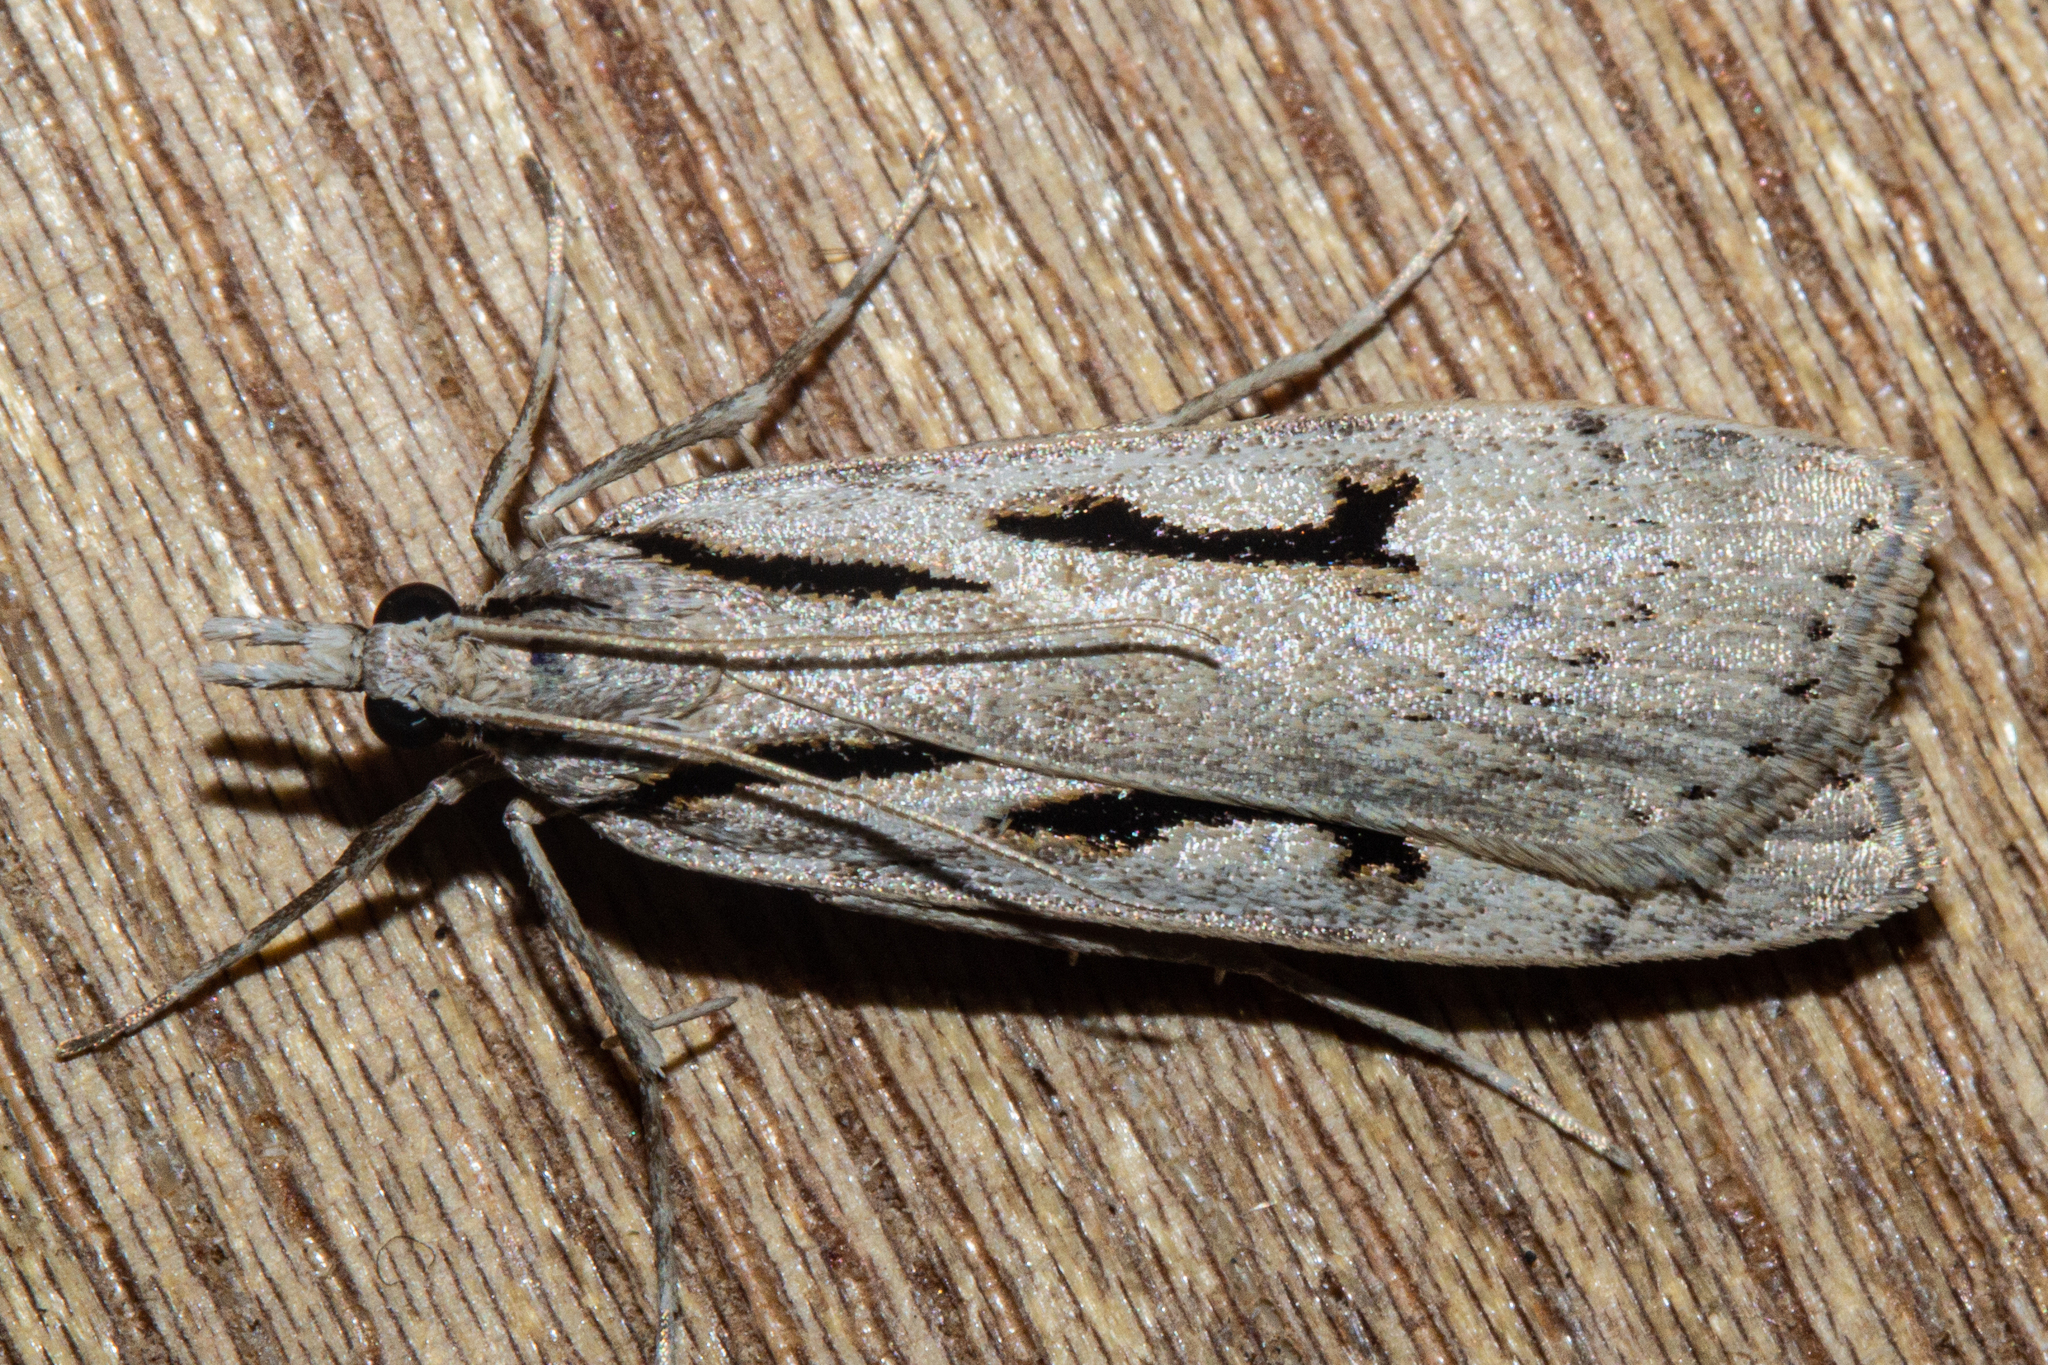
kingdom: Animalia
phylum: Arthropoda
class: Insecta
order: Lepidoptera
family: Crambidae
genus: Scoparia
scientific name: Scoparia rotuellus
